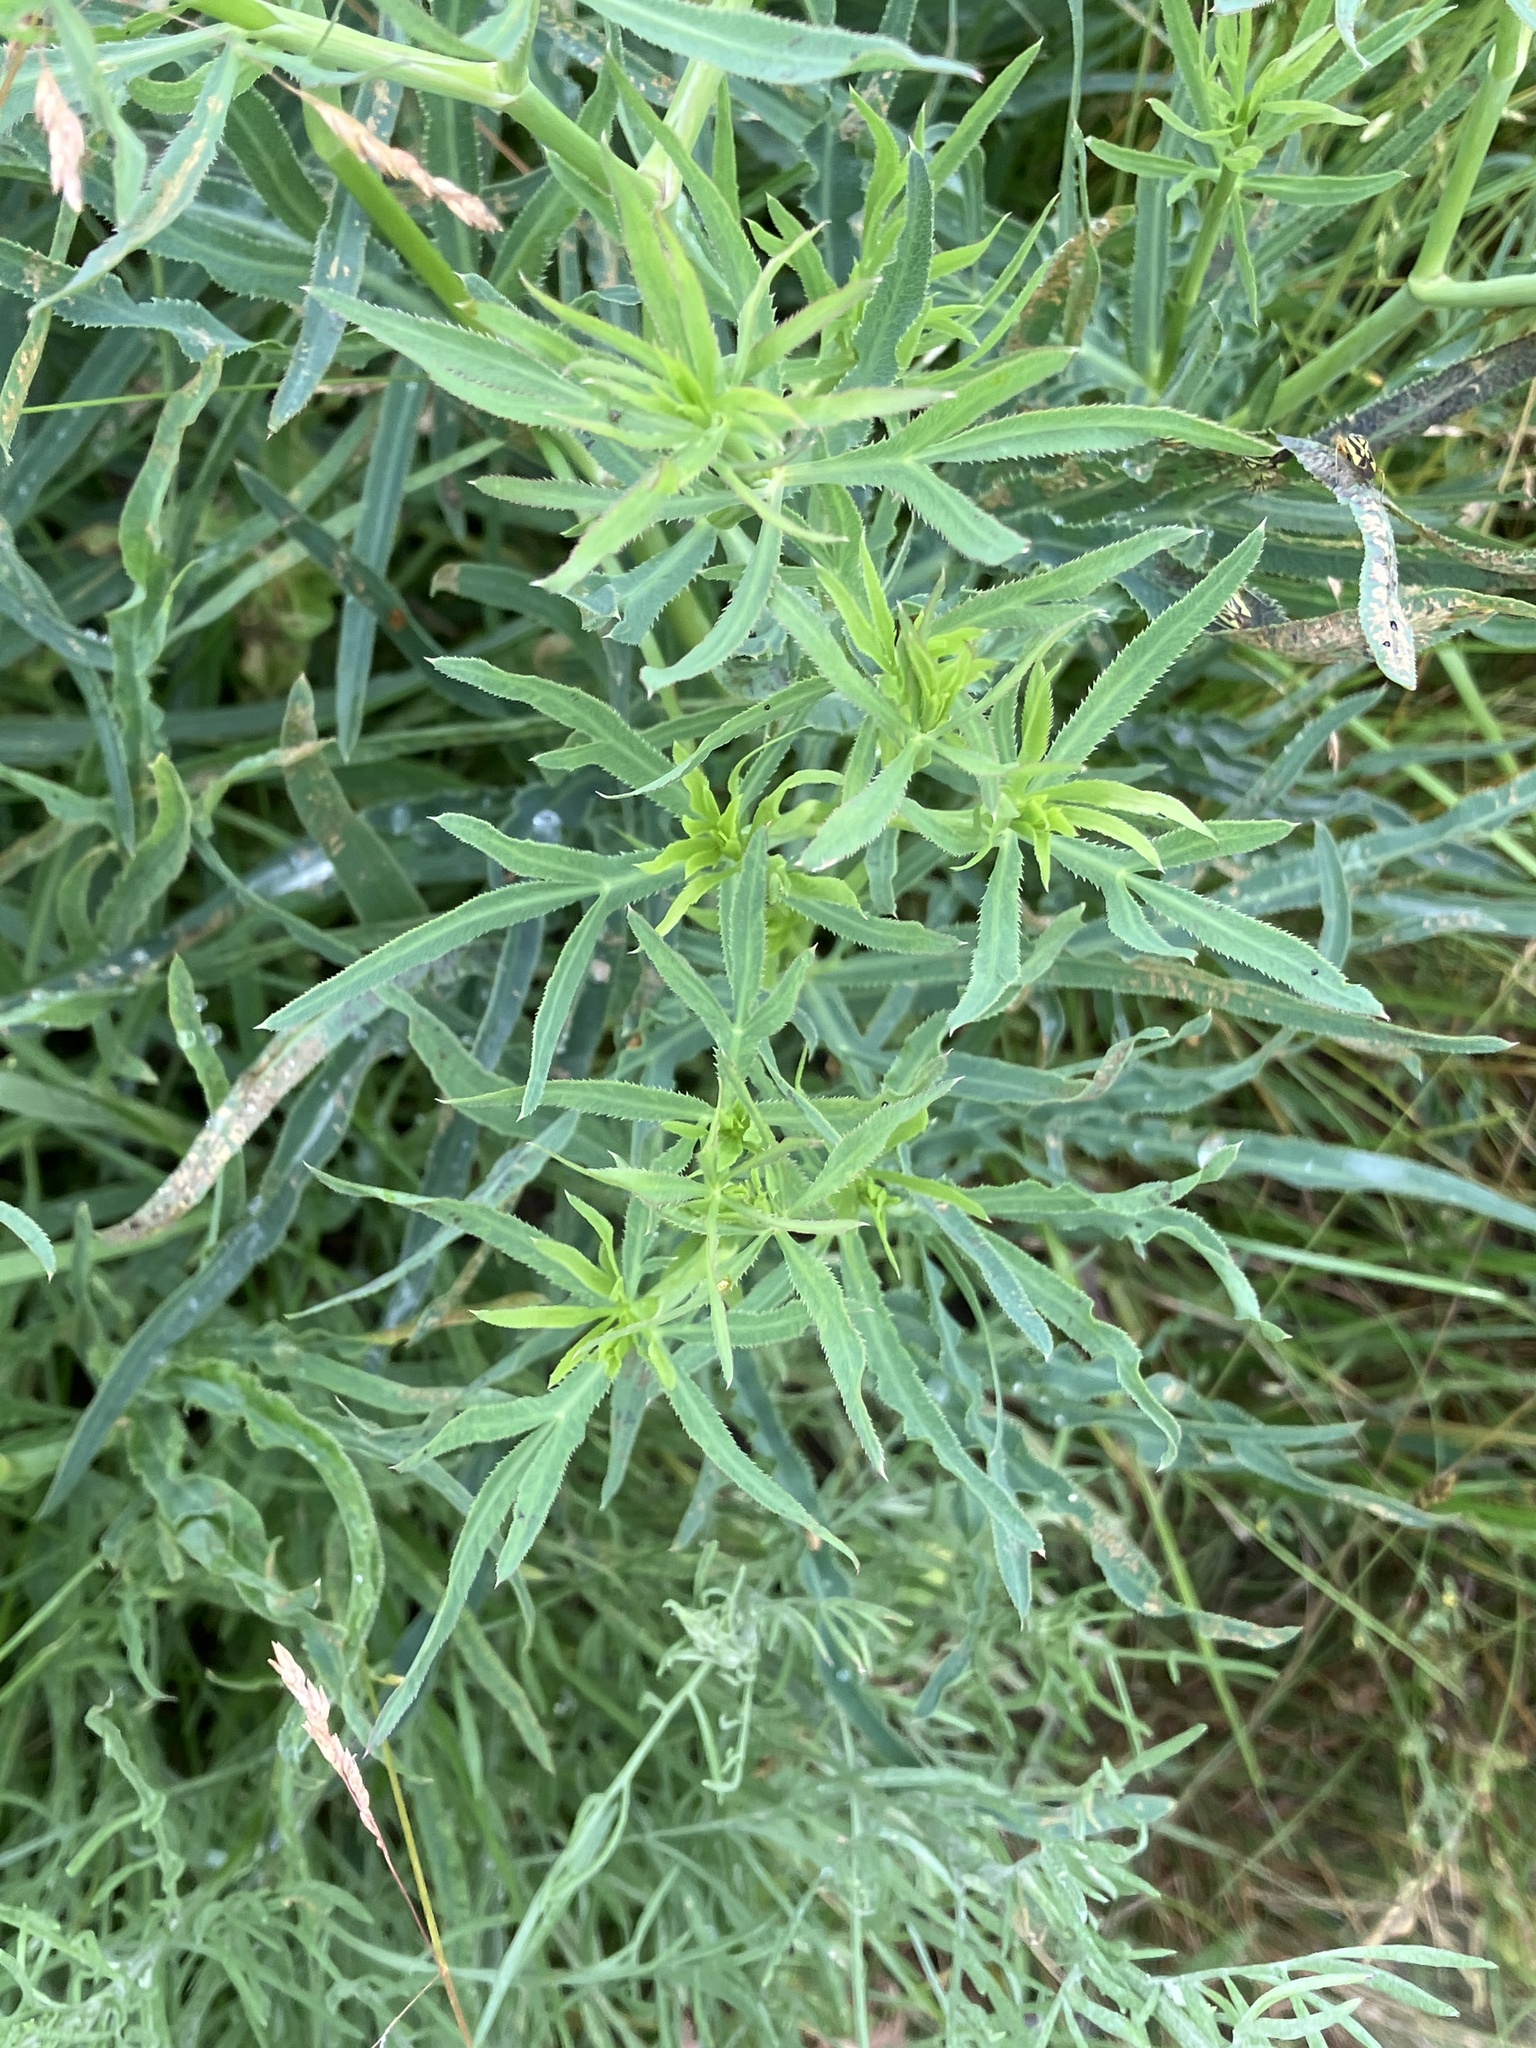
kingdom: Plantae
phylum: Tracheophyta
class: Magnoliopsida
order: Apiales
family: Apiaceae
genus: Falcaria
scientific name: Falcaria vulgaris
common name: Longleaf
